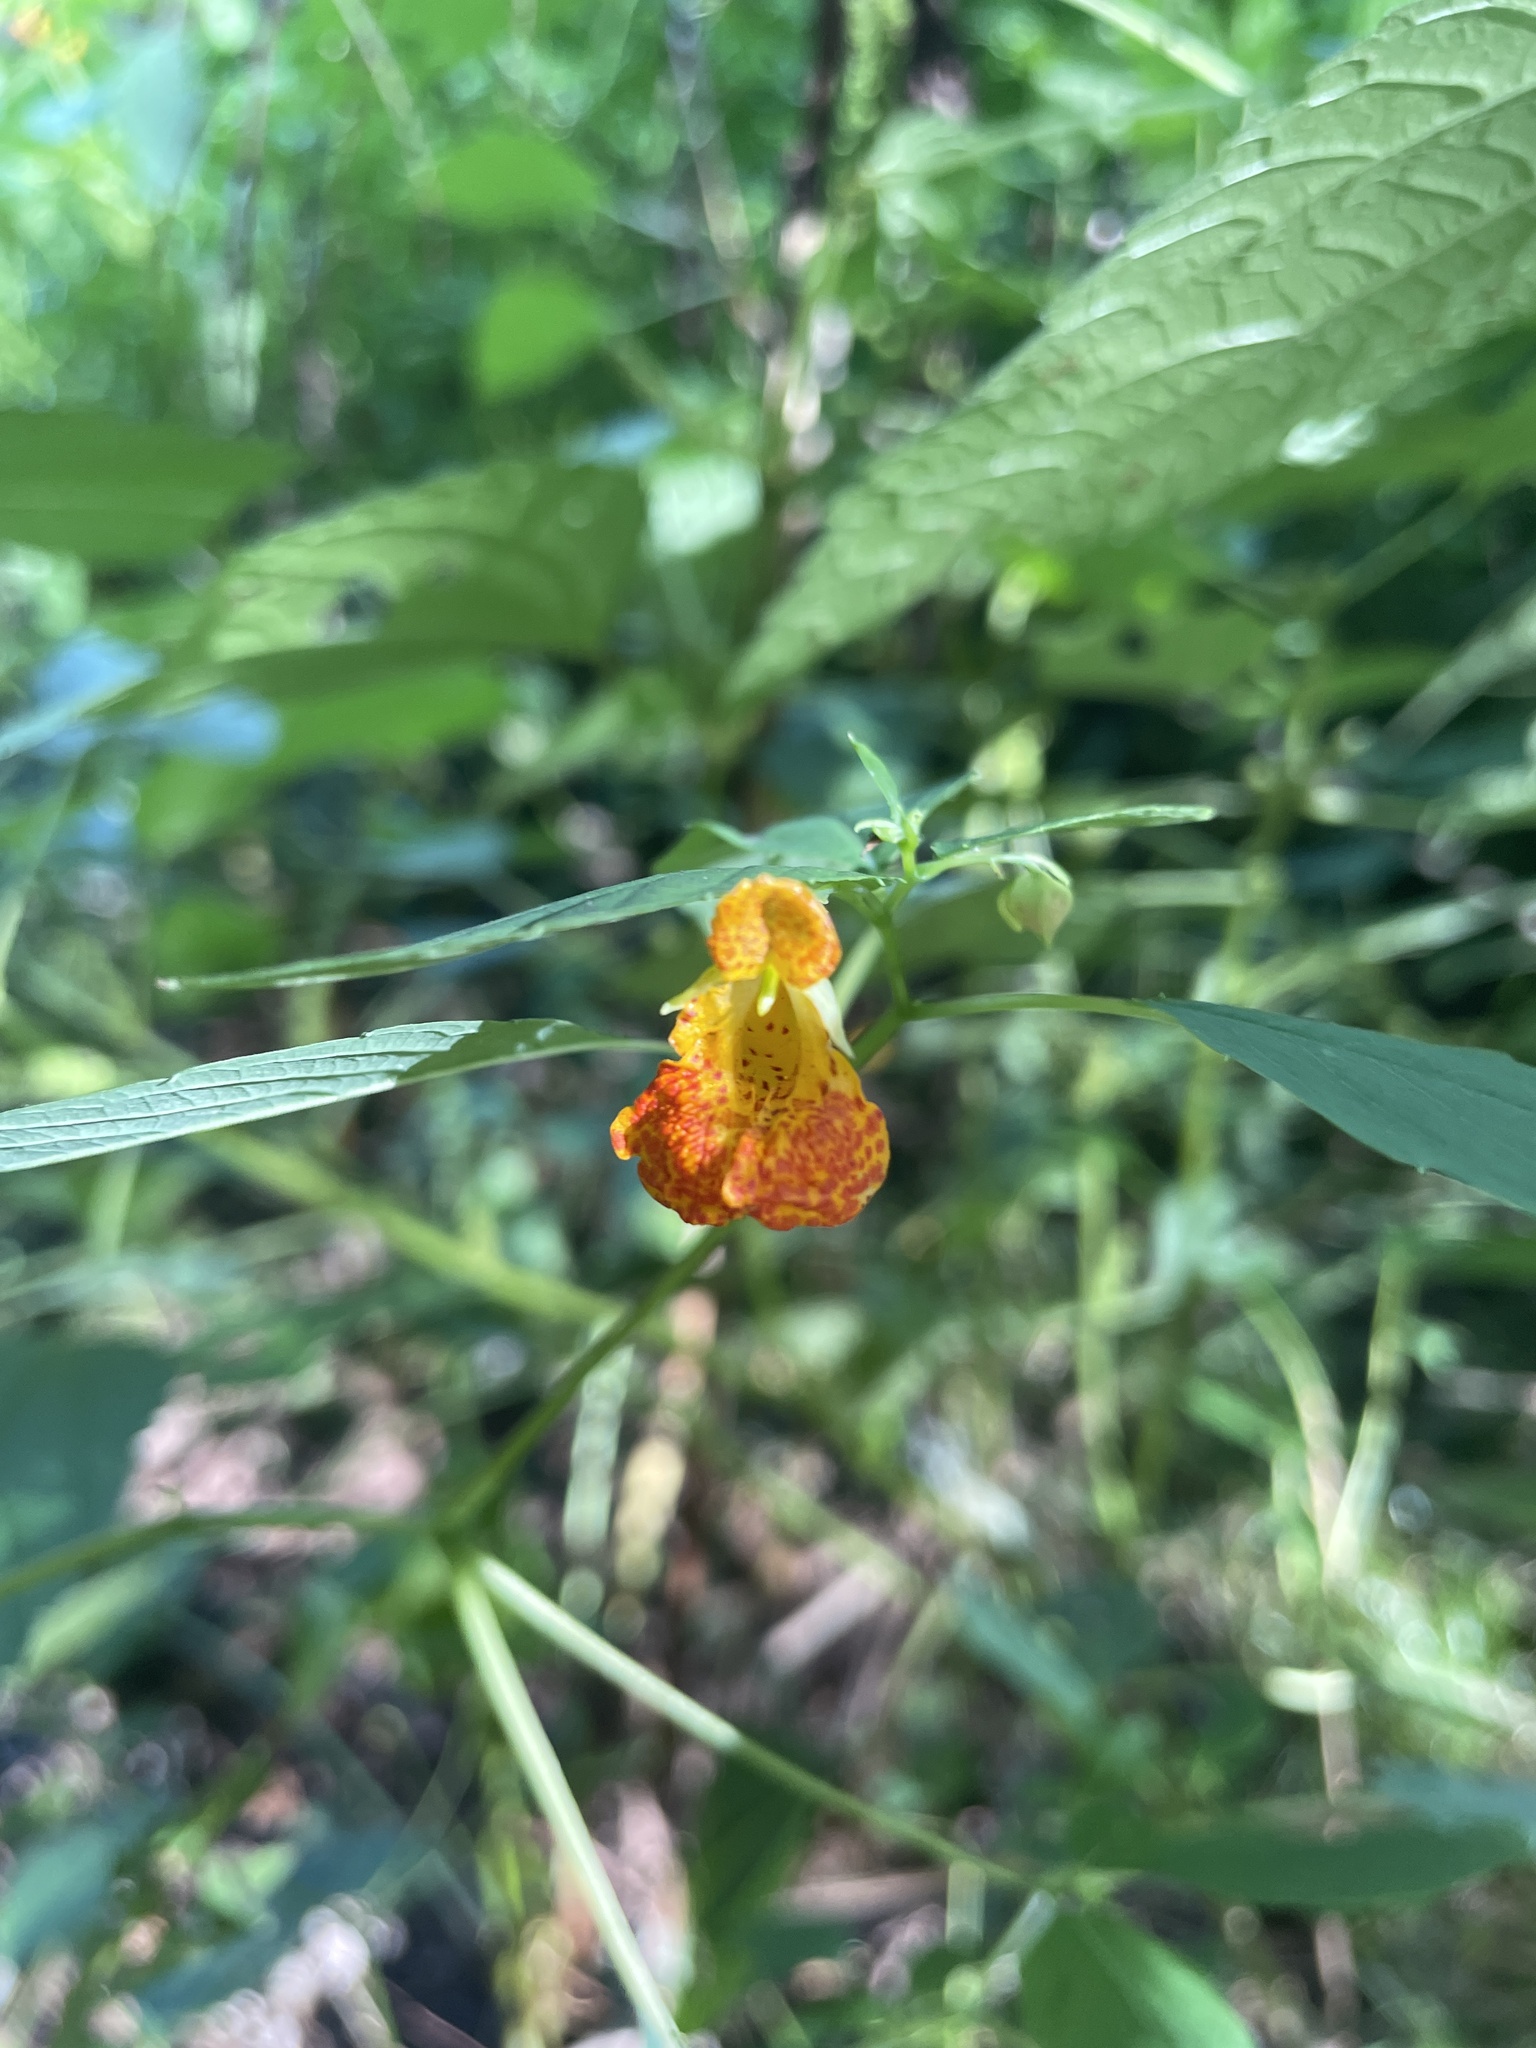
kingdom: Plantae
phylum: Tracheophyta
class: Magnoliopsida
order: Ericales
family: Balsaminaceae
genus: Impatiens
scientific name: Impatiens capensis
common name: Orange balsam
